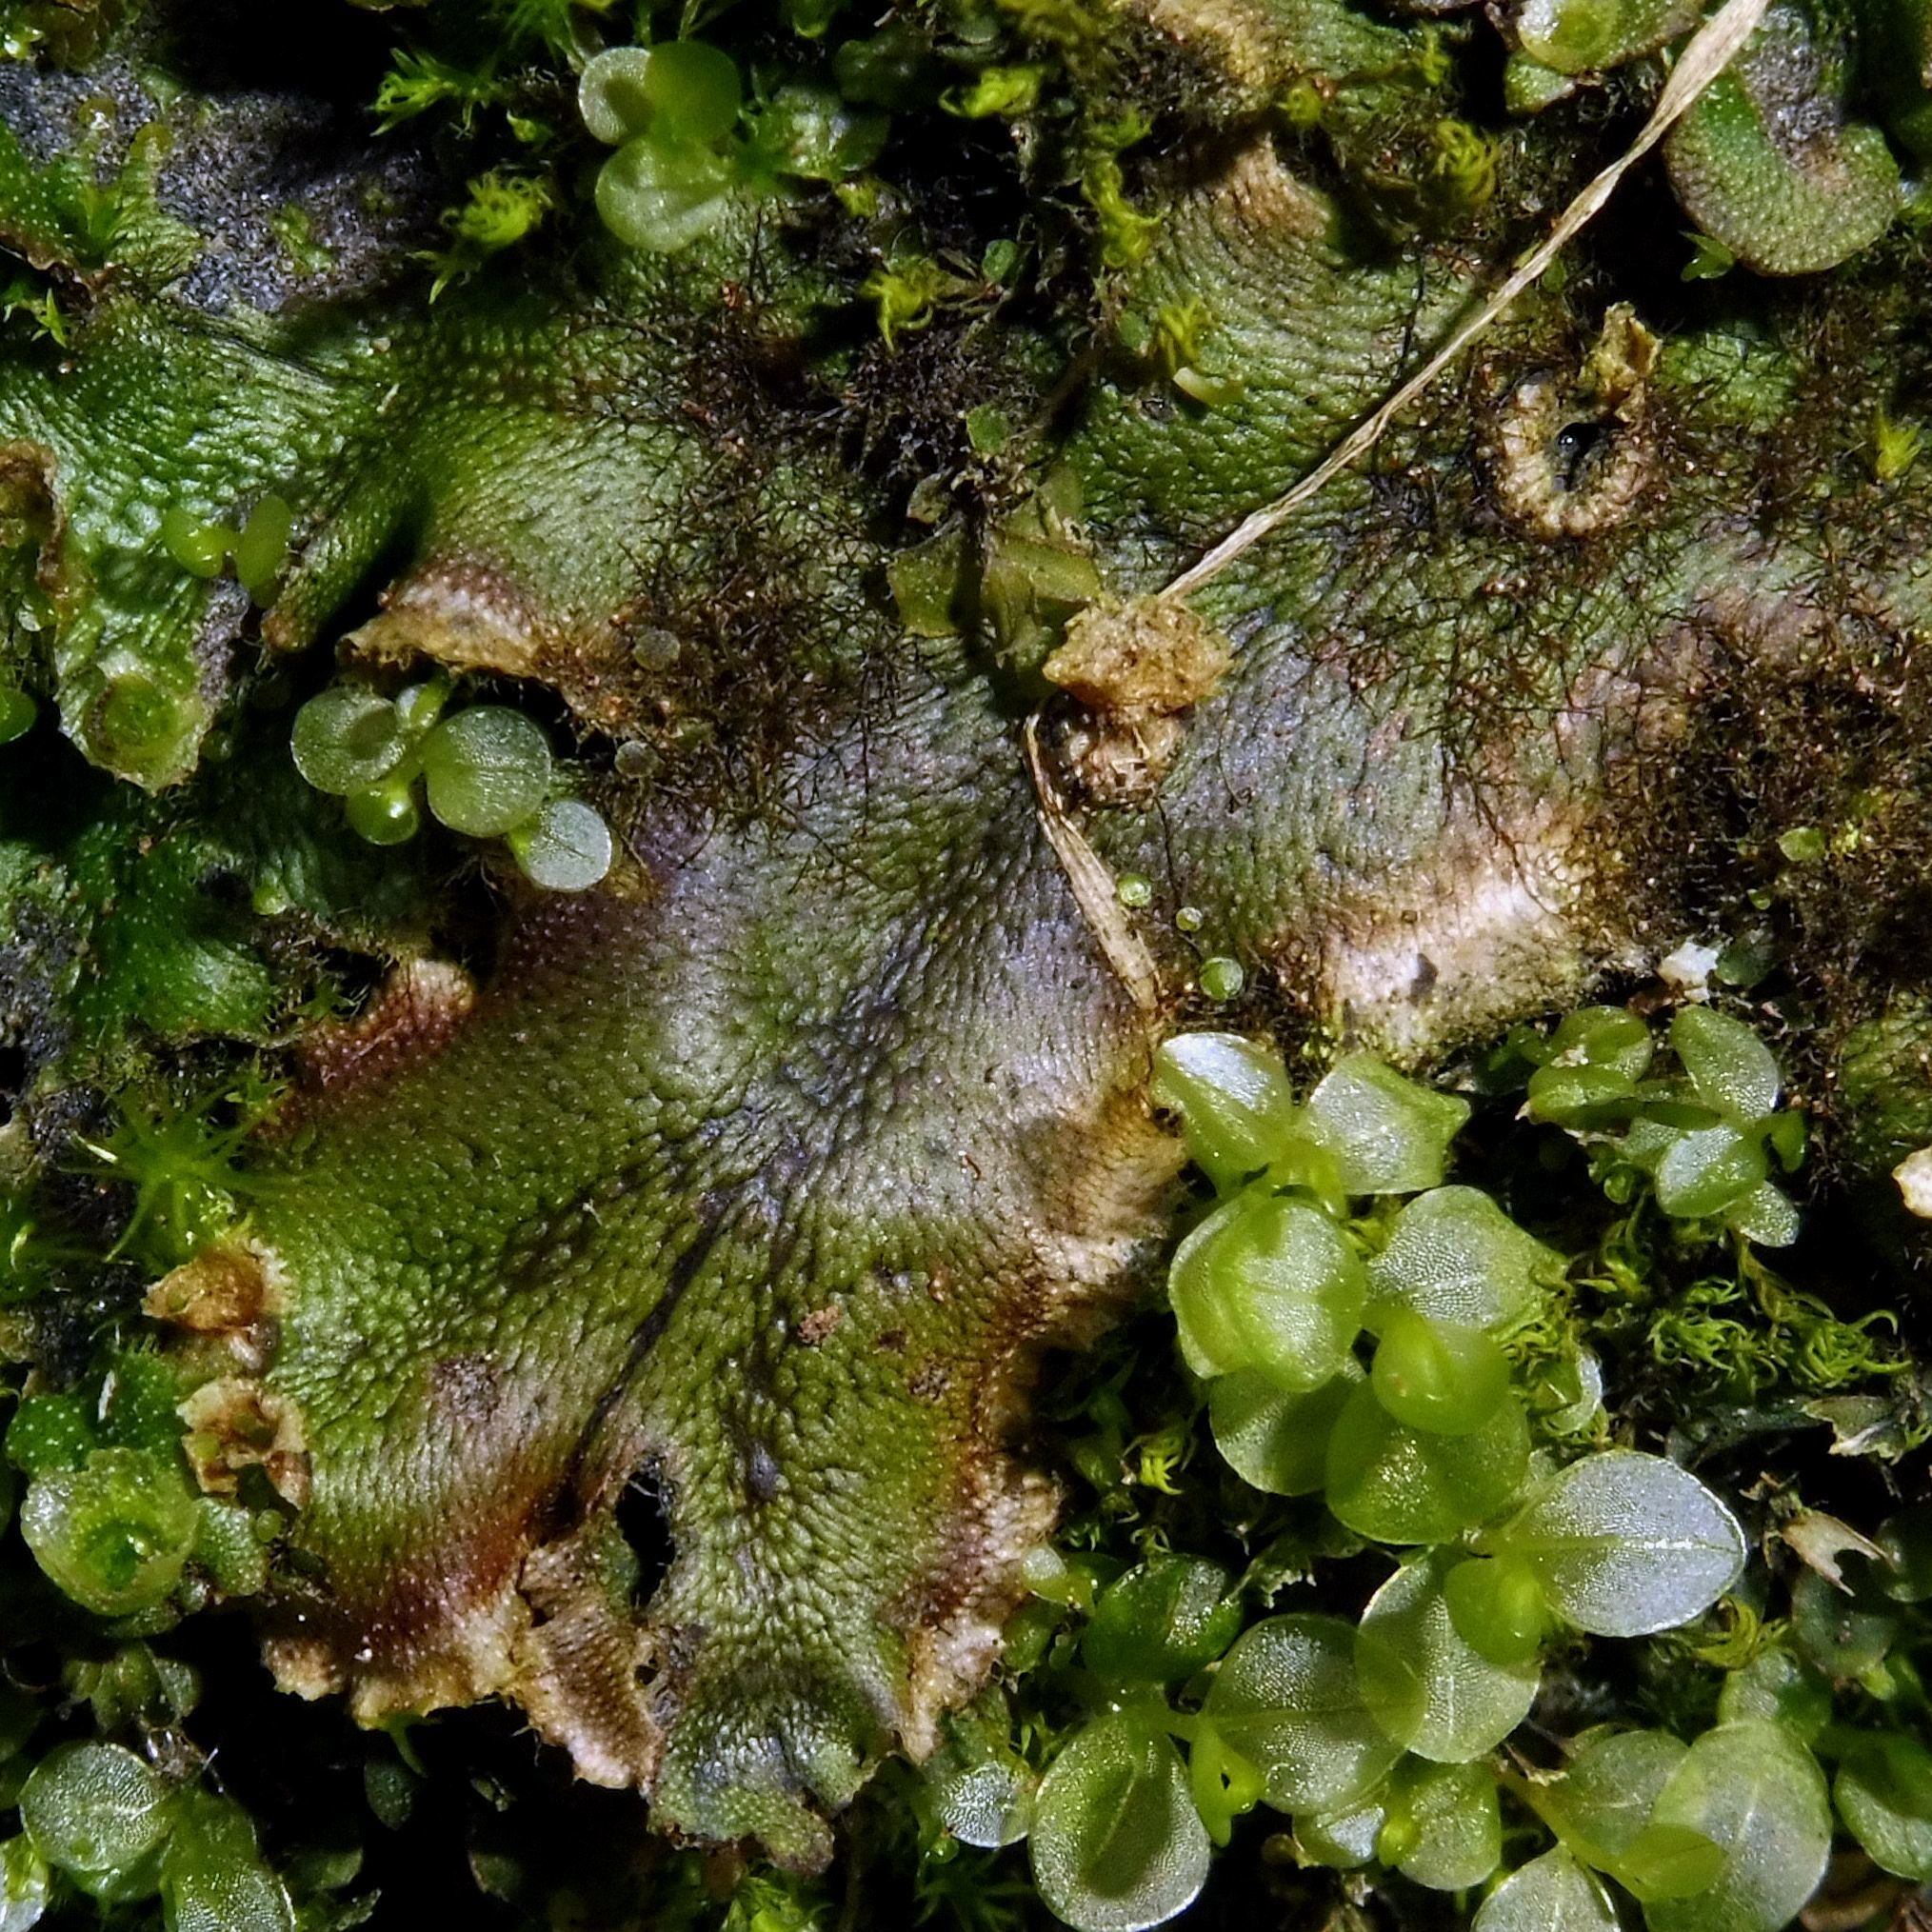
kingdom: Plantae
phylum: Marchantiophyta
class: Marchantiopsida
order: Marchantiales
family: Marchantiaceae
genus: Marchantia
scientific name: Marchantia polymorpha
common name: Common liverwort
